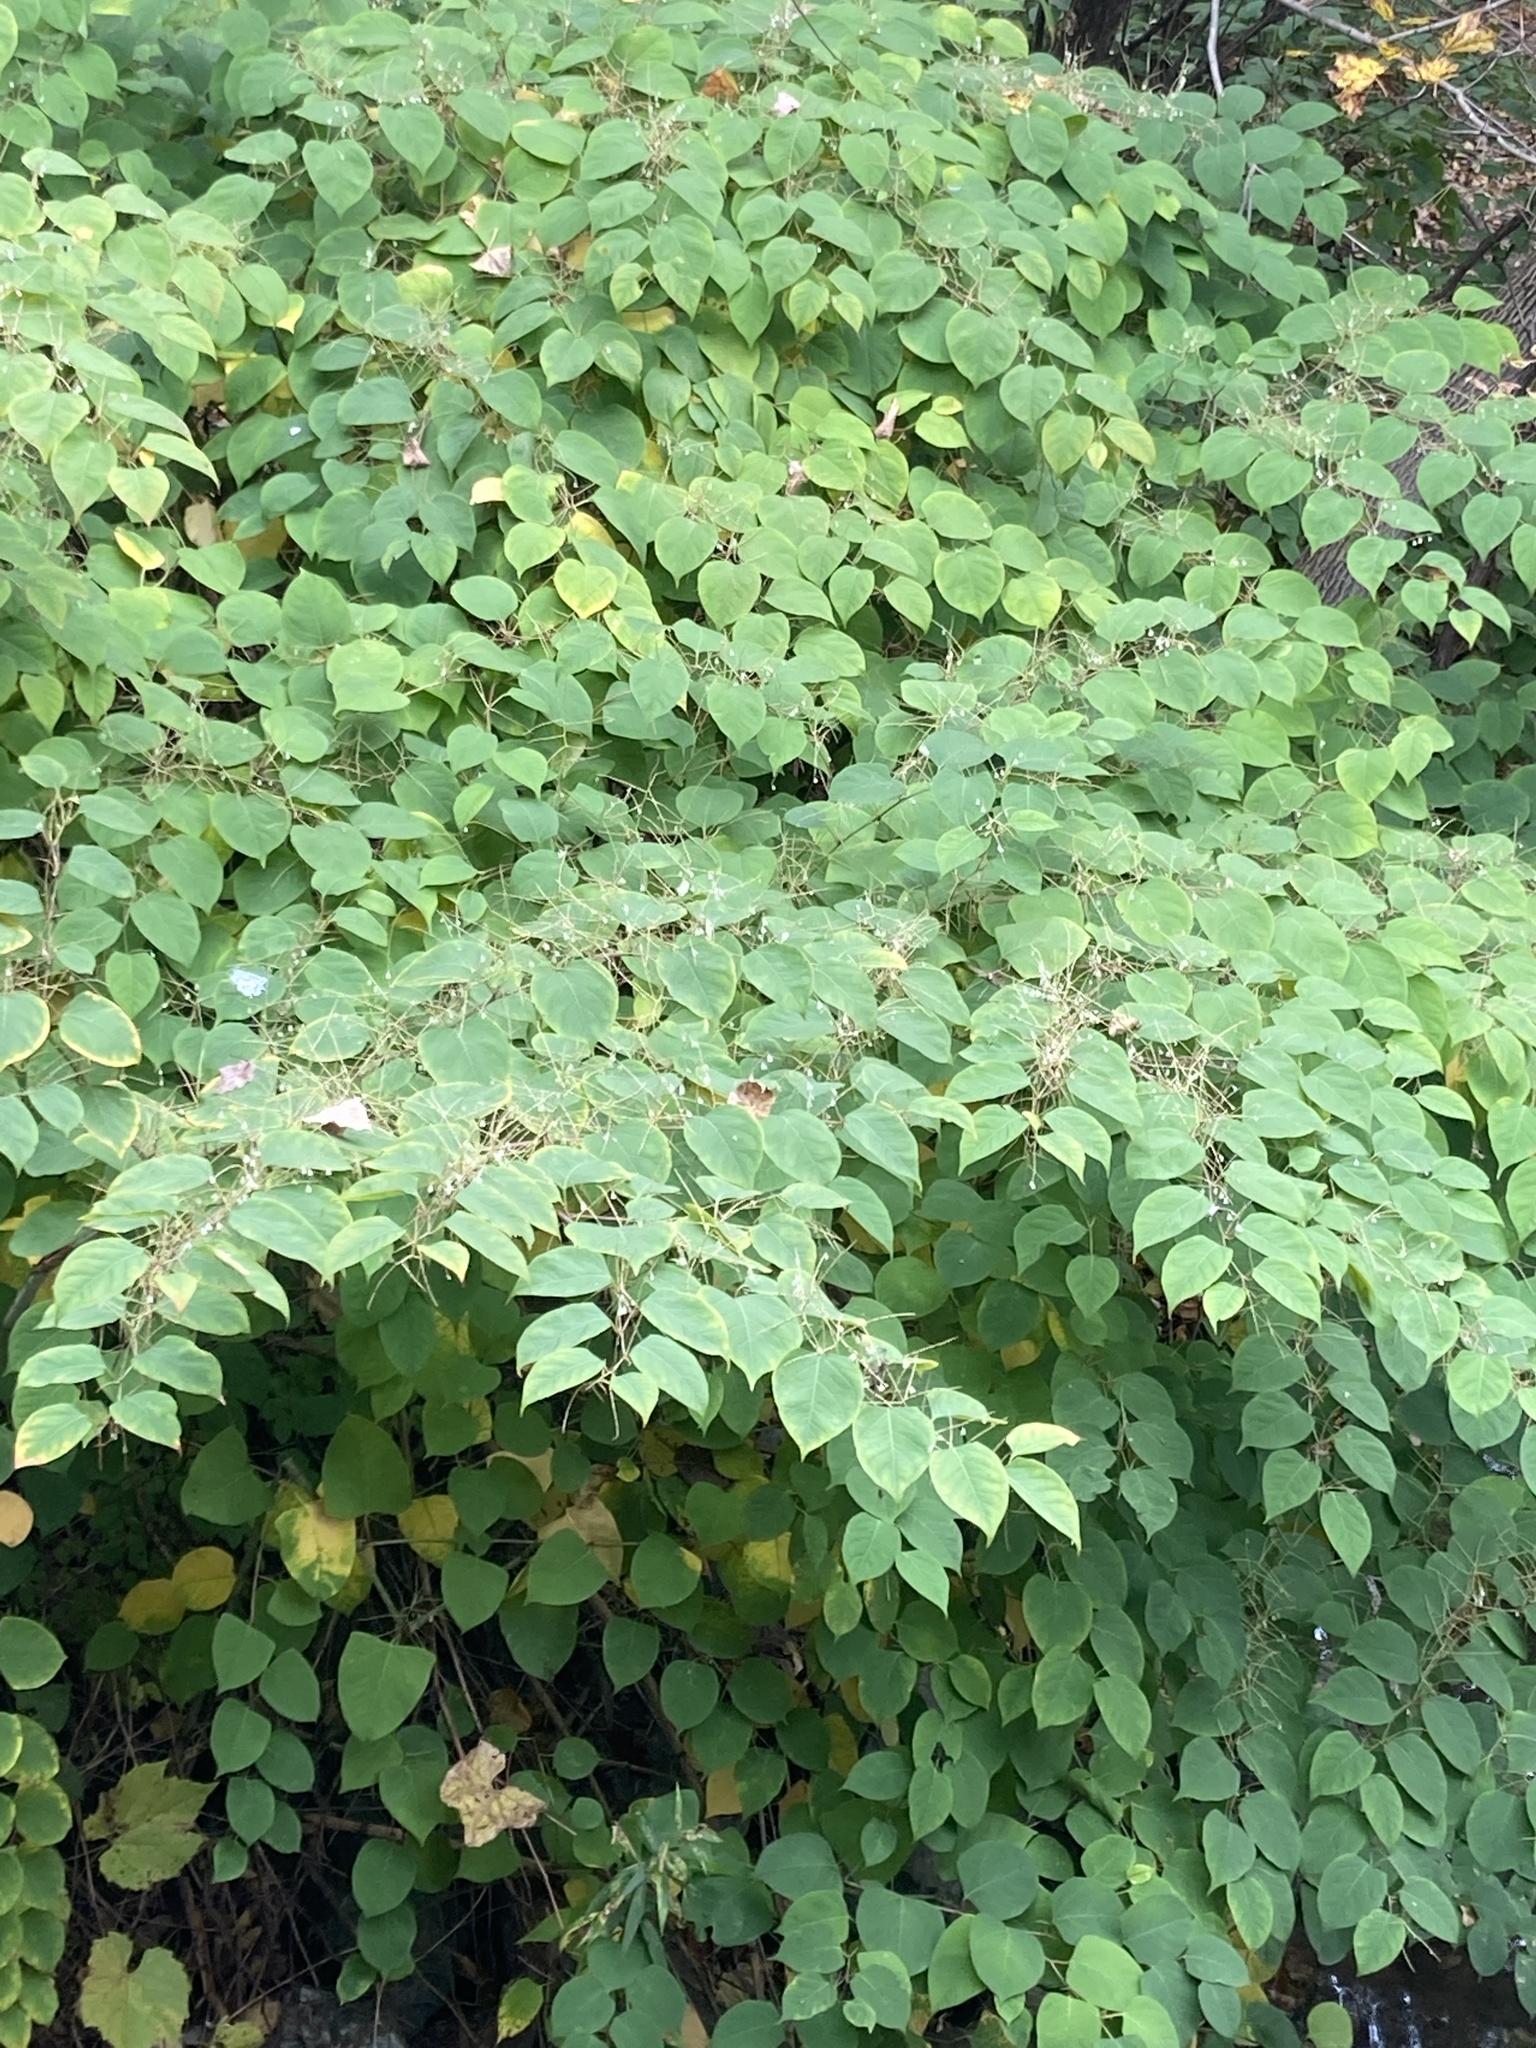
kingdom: Plantae
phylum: Tracheophyta
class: Magnoliopsida
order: Caryophyllales
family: Polygonaceae
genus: Reynoutria
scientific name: Reynoutria japonica
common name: Japanese knotweed
